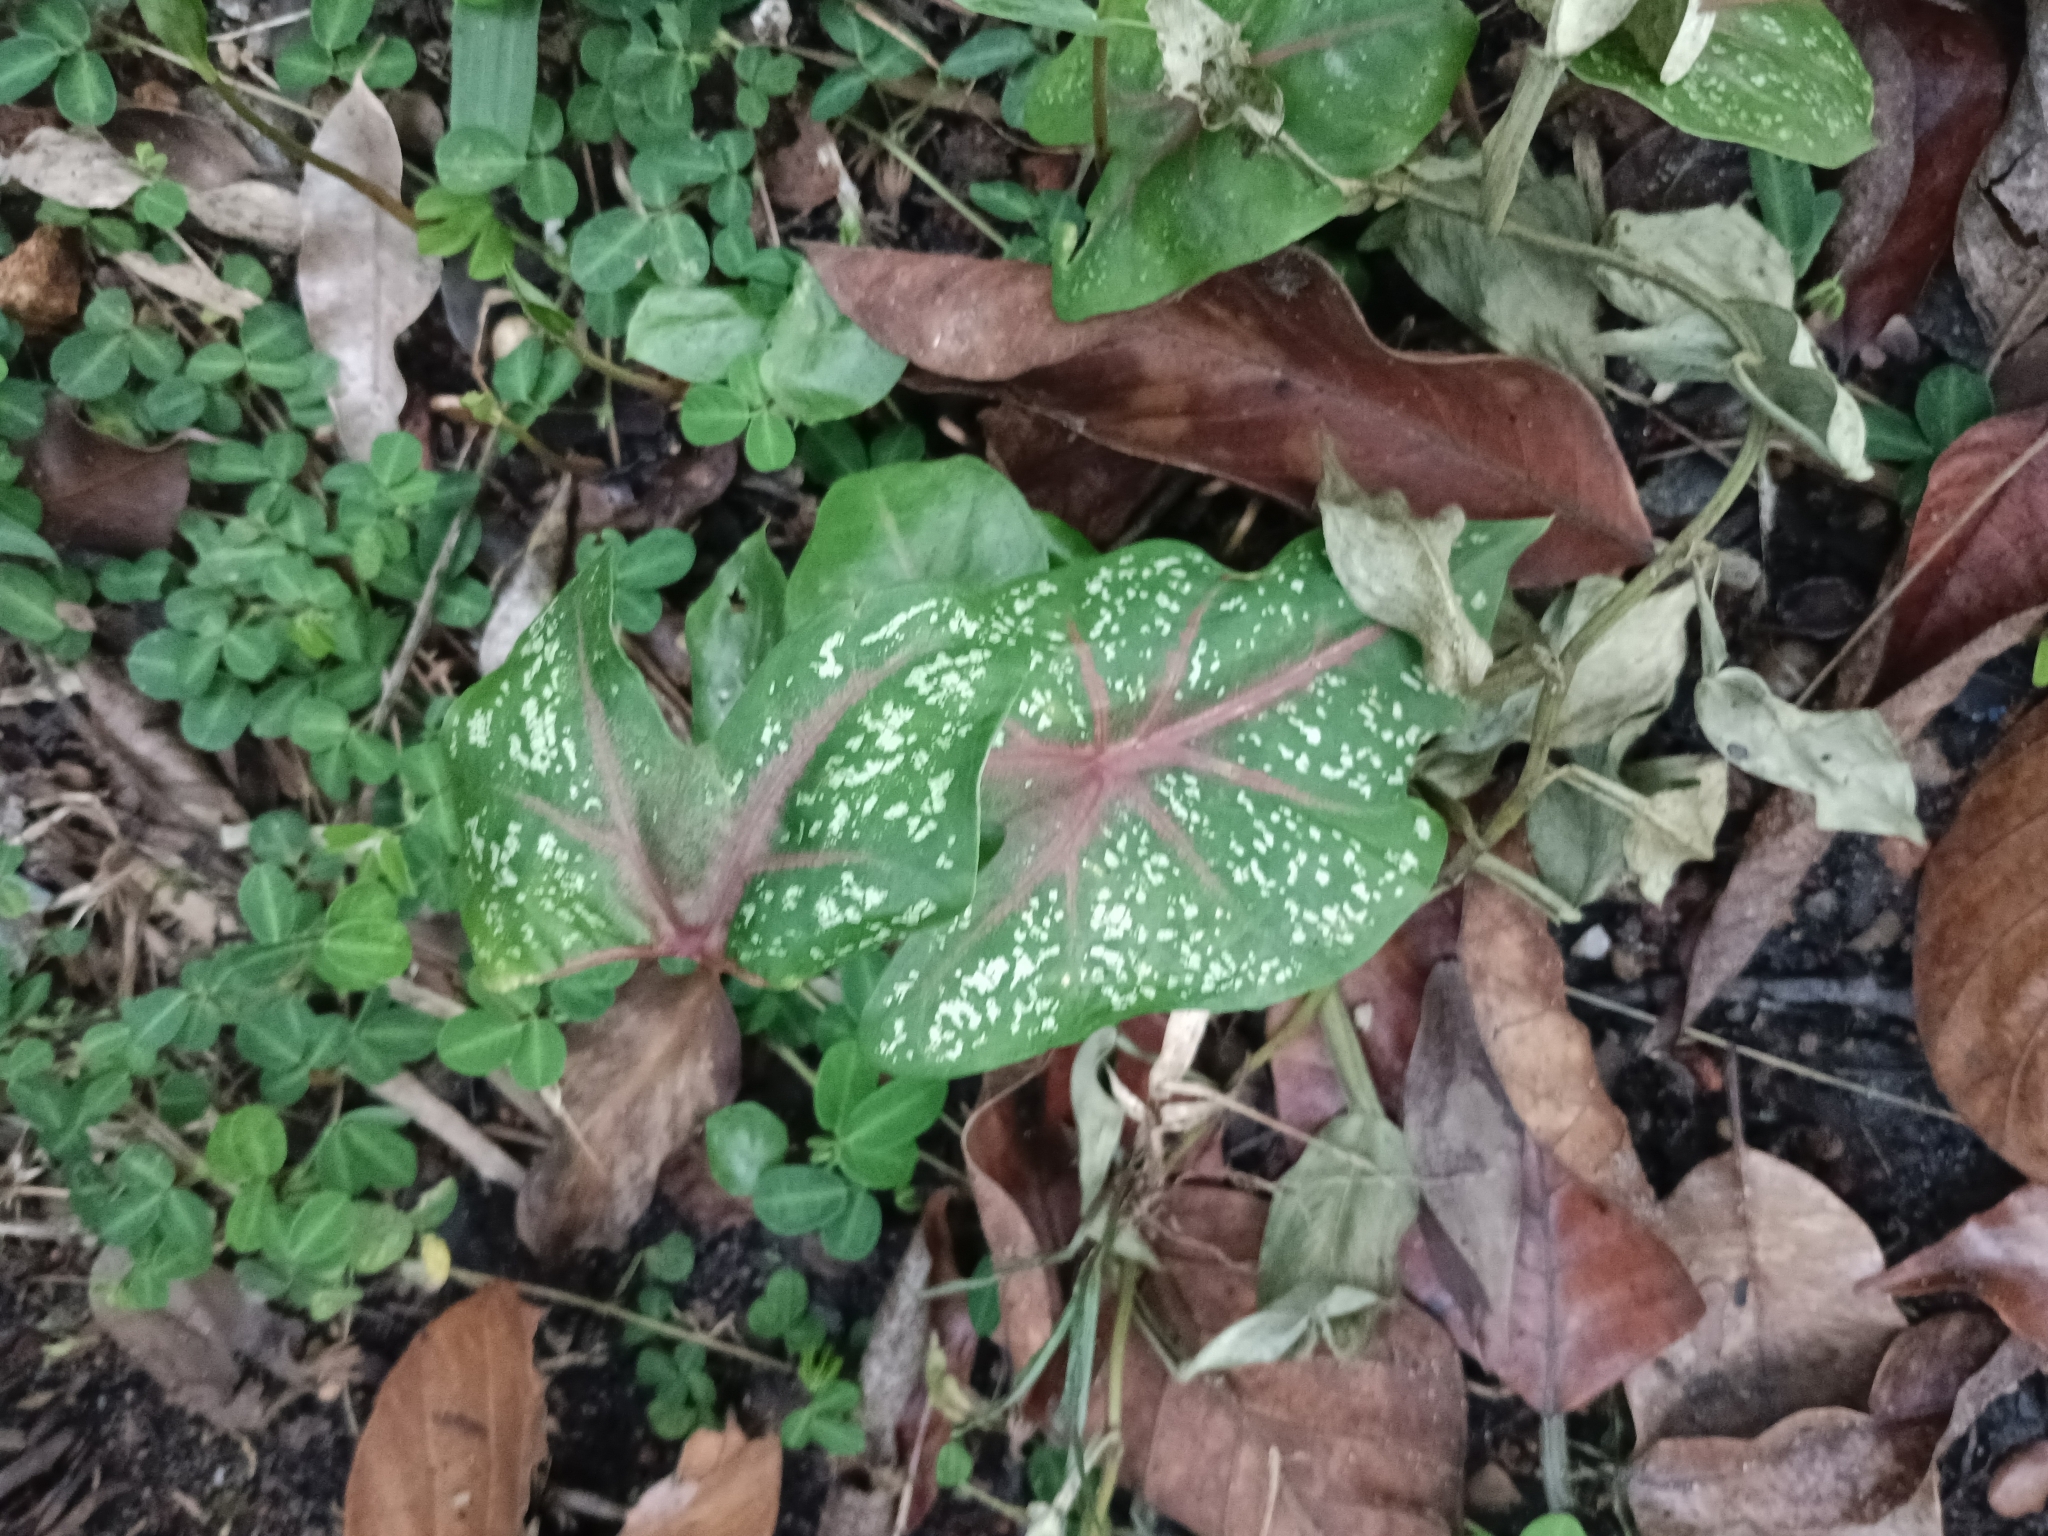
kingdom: Plantae
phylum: Tracheophyta
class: Liliopsida
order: Alismatales
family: Araceae
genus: Caladium
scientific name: Caladium bicolor
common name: Artist's pallet
